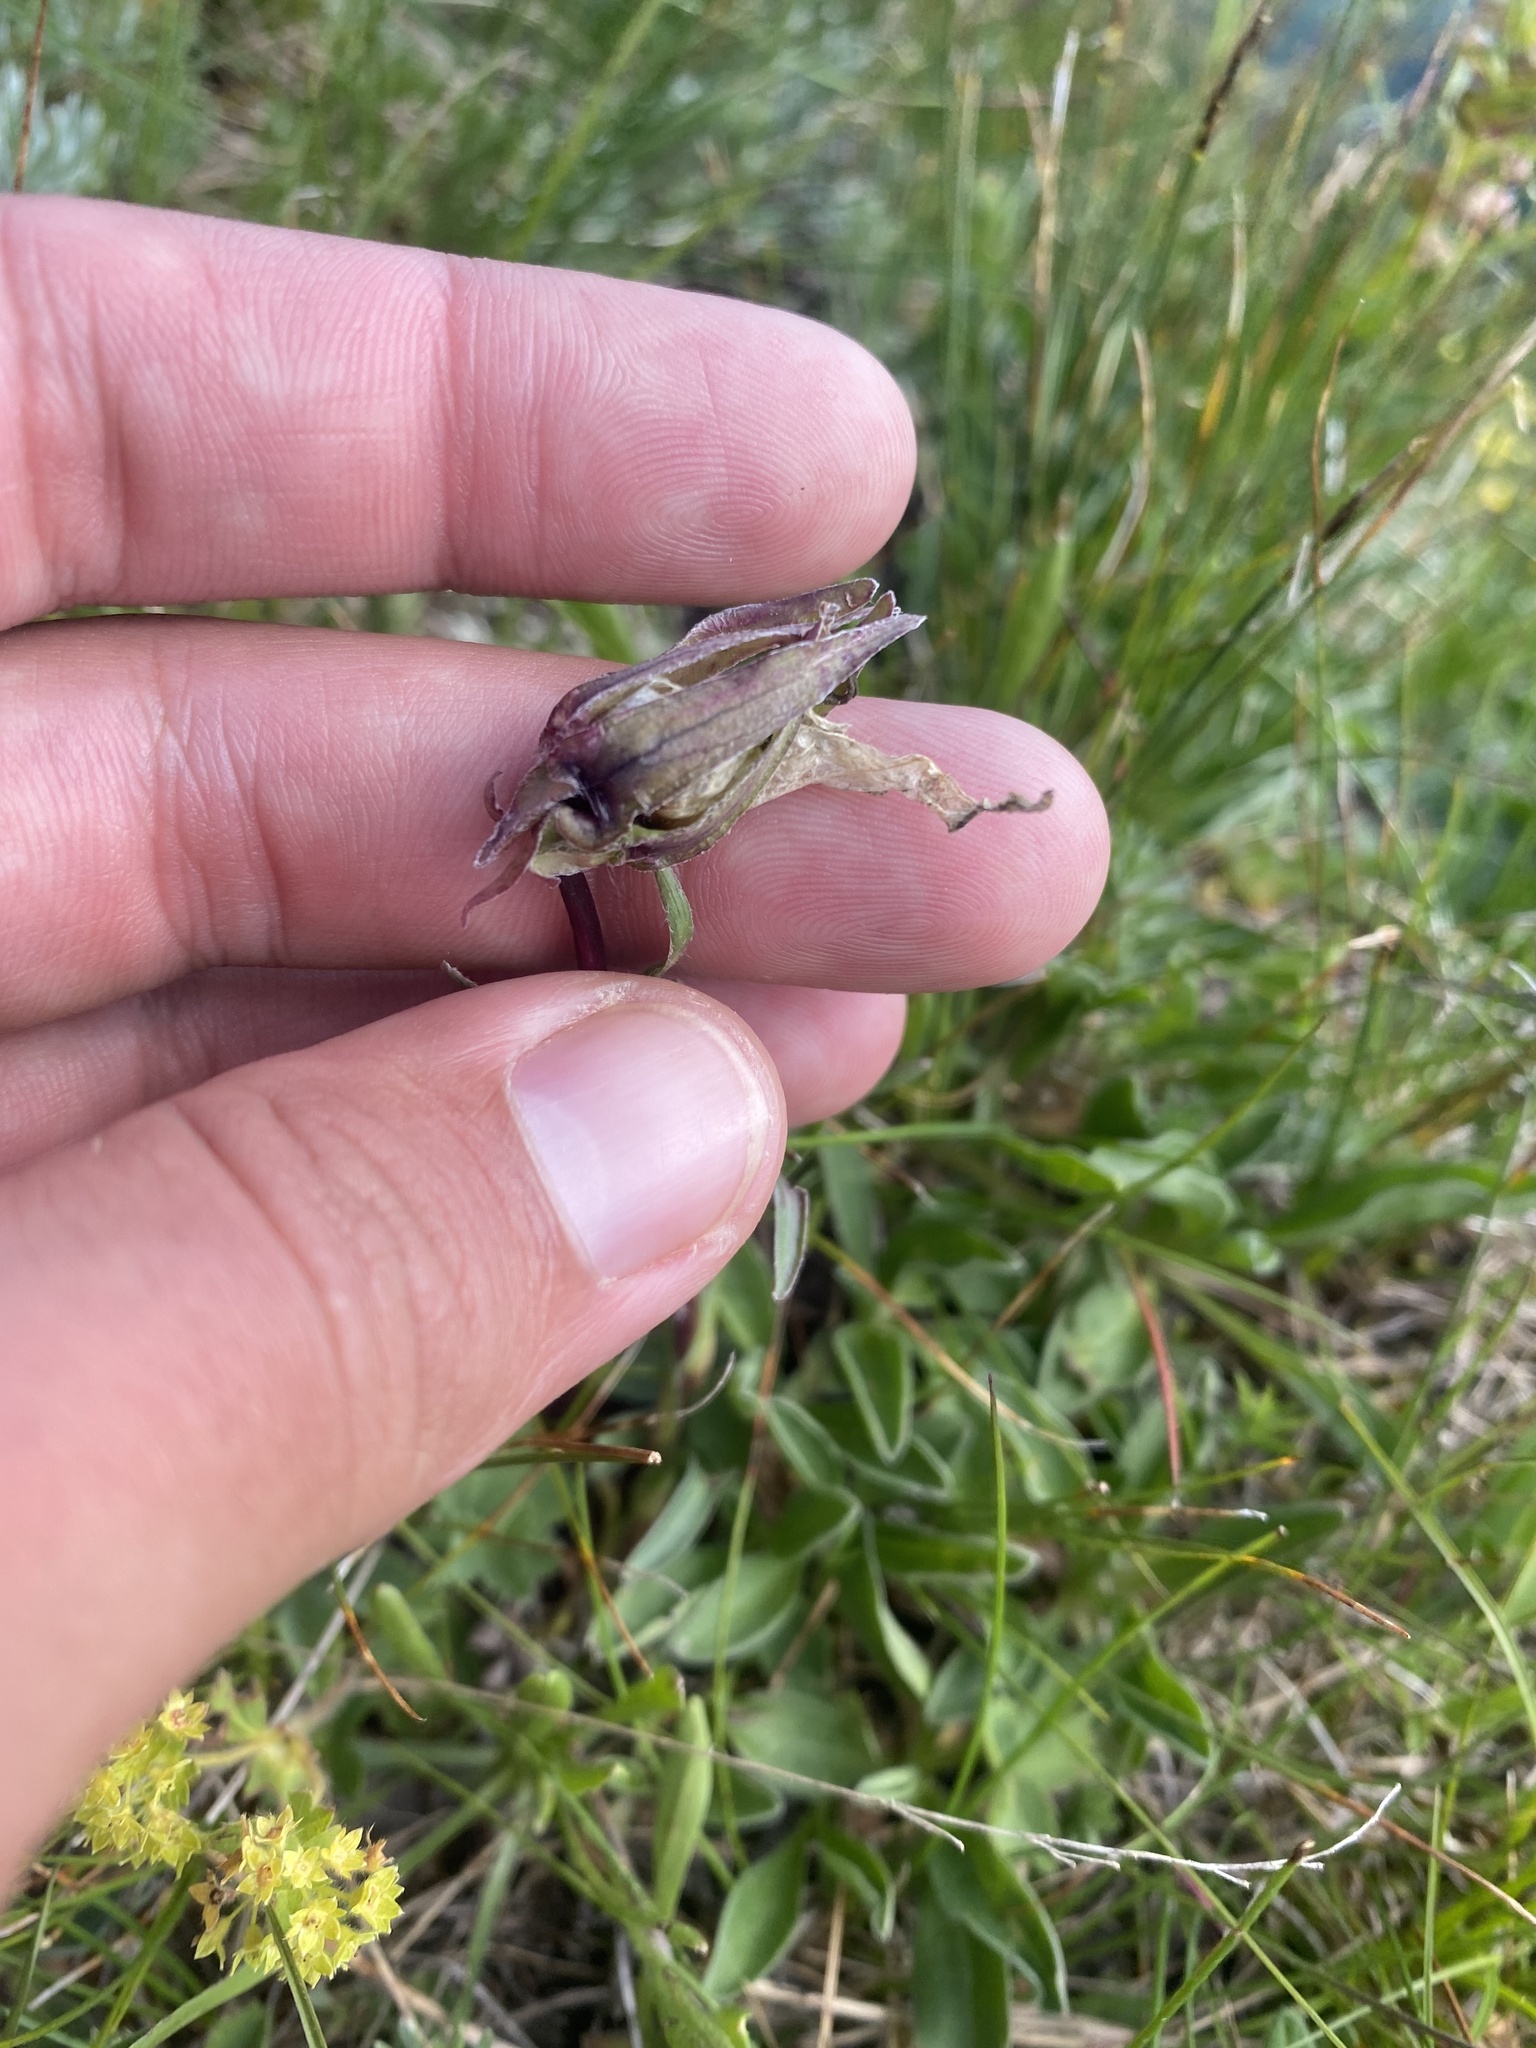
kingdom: Plantae
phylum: Tracheophyta
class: Magnoliopsida
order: Asterales
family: Campanulaceae
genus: Campanula
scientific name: Campanula tridentata
